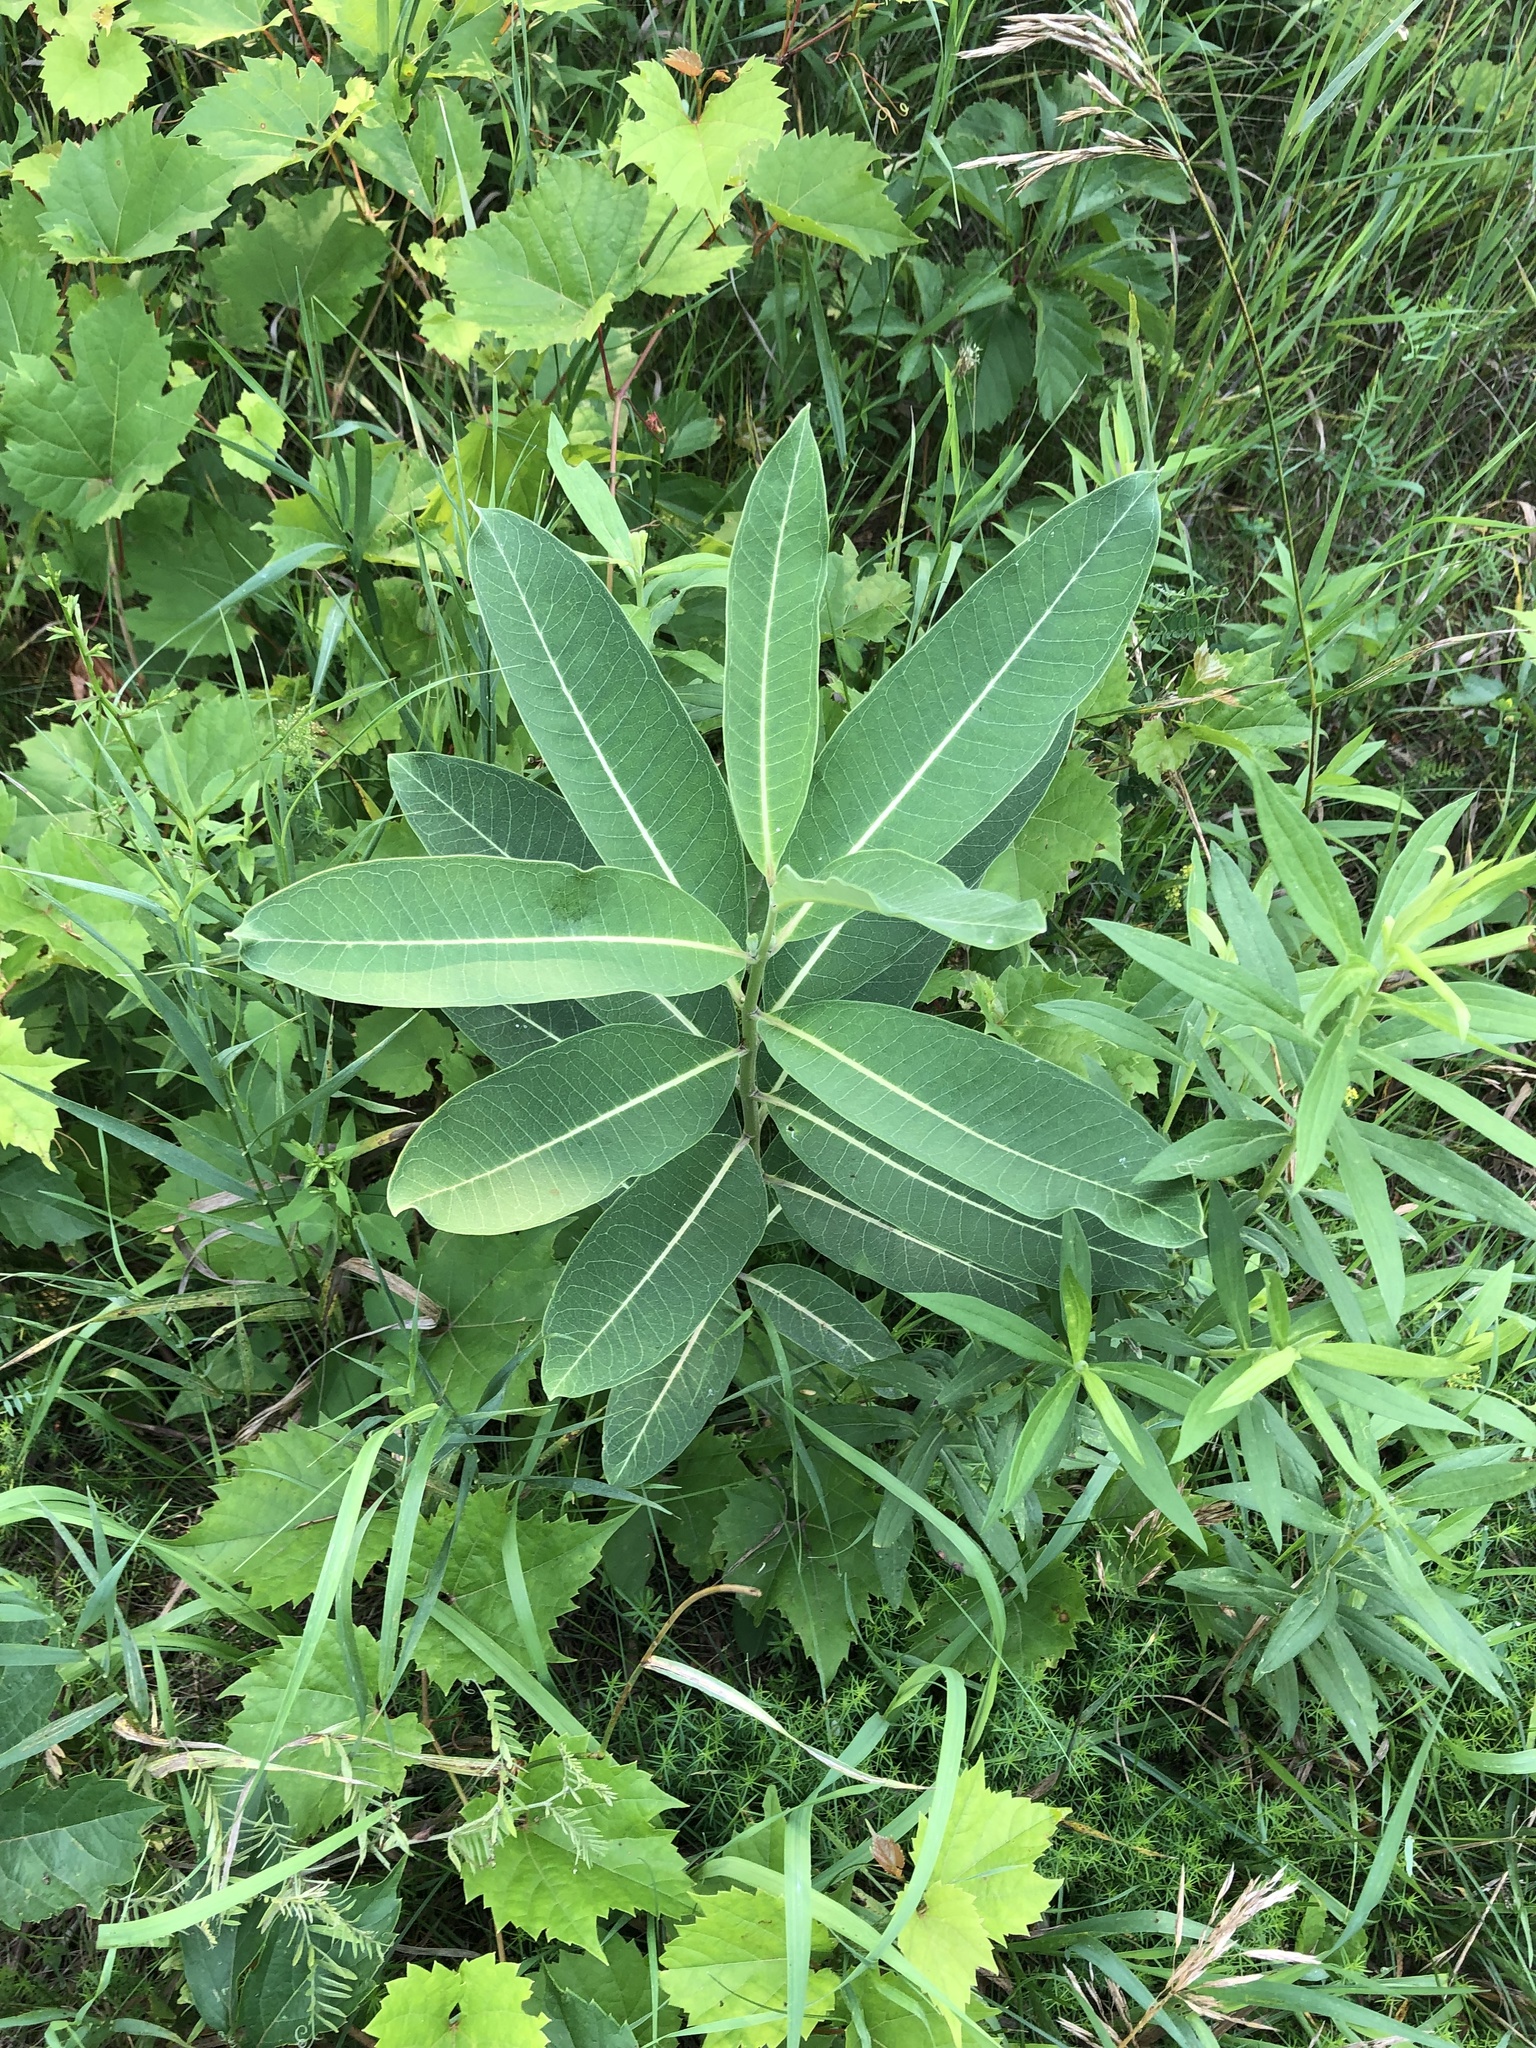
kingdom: Plantae
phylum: Tracheophyta
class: Magnoliopsida
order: Gentianales
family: Apocynaceae
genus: Asclepias
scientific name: Asclepias syriaca
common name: Common milkweed
